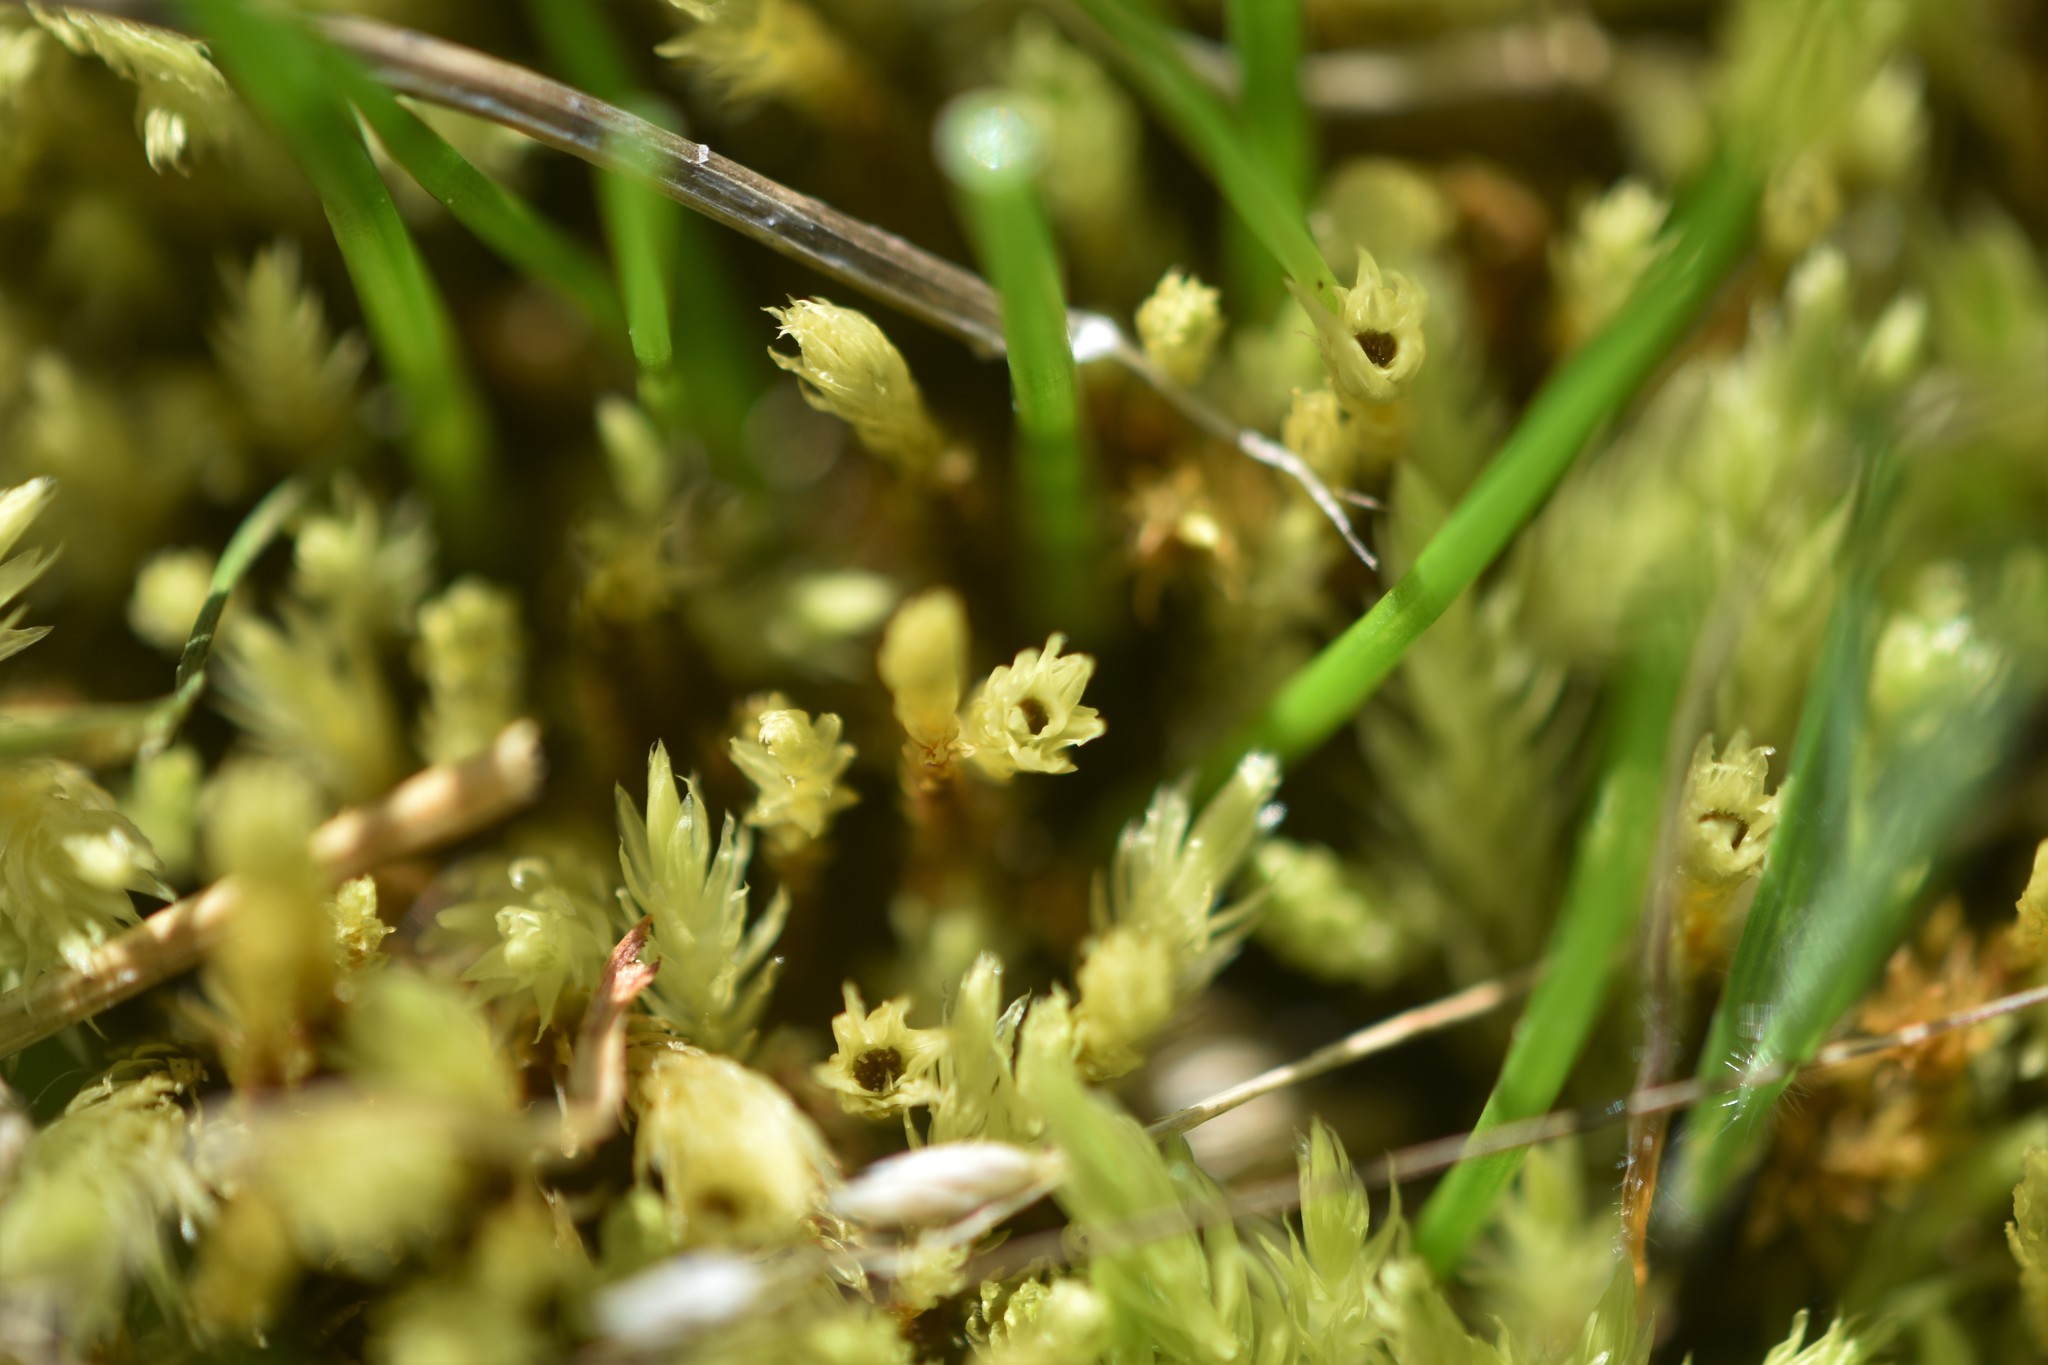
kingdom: Plantae
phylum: Bryophyta
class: Bryopsida
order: Aulacomniales
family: Aulacomniaceae
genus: Aulacomnium
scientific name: Aulacomnium palustre
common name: Bog groove-moss
